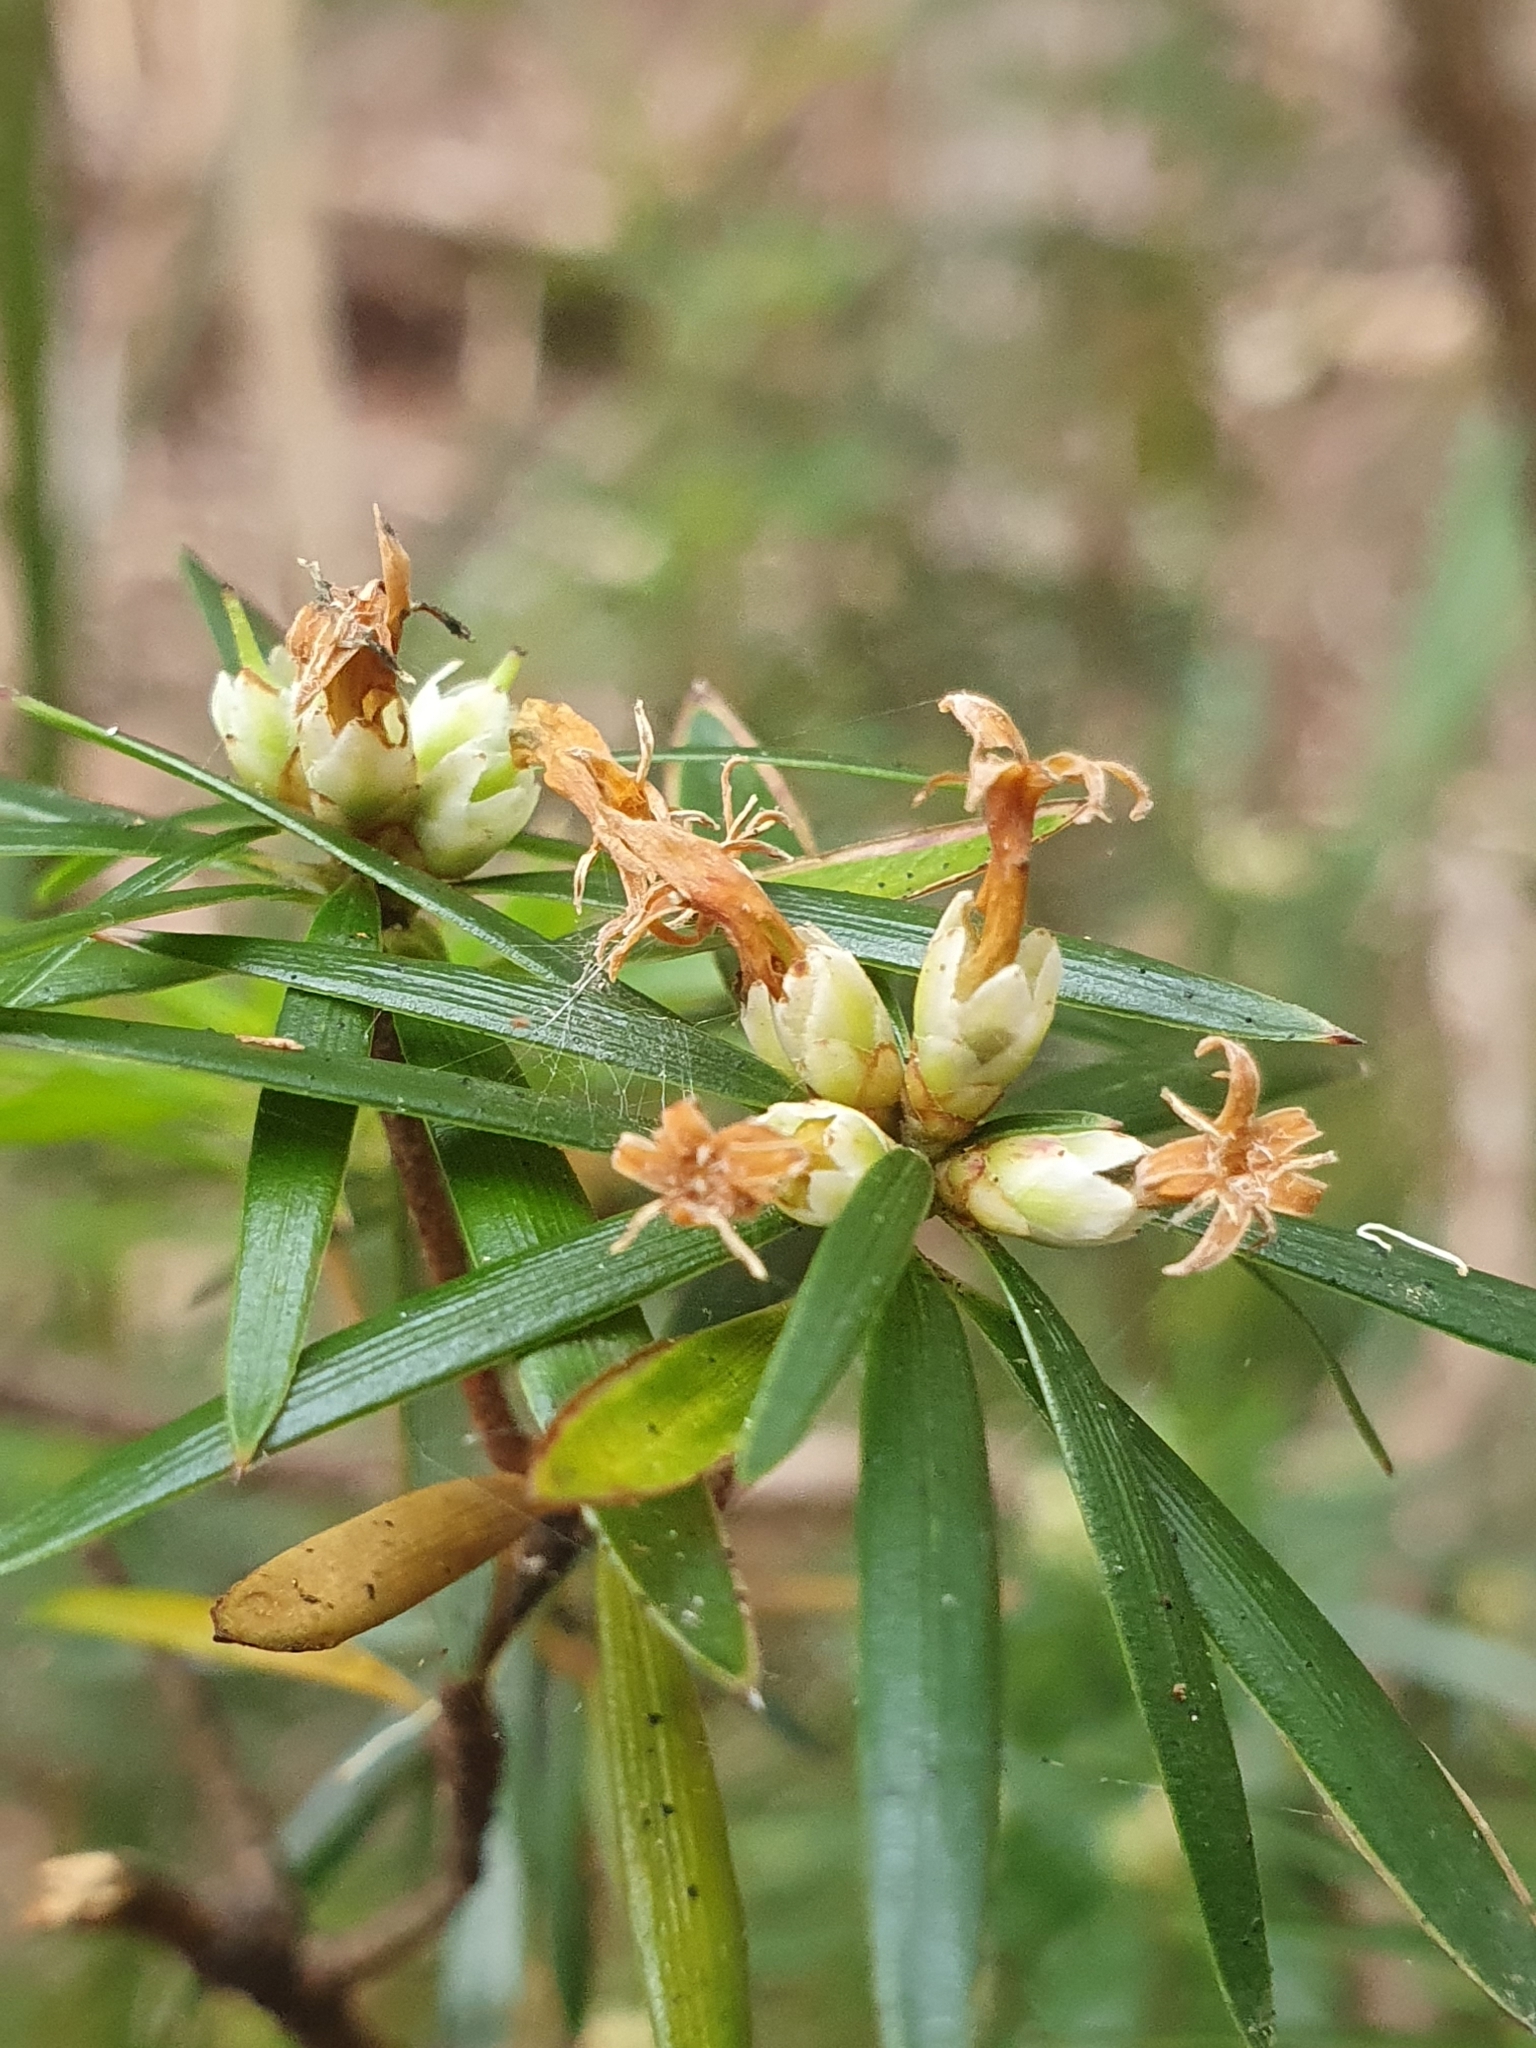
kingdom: Plantae
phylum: Tracheophyta
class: Magnoliopsida
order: Ericales
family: Ericaceae
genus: Cyathodes
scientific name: Cyathodes glauca
